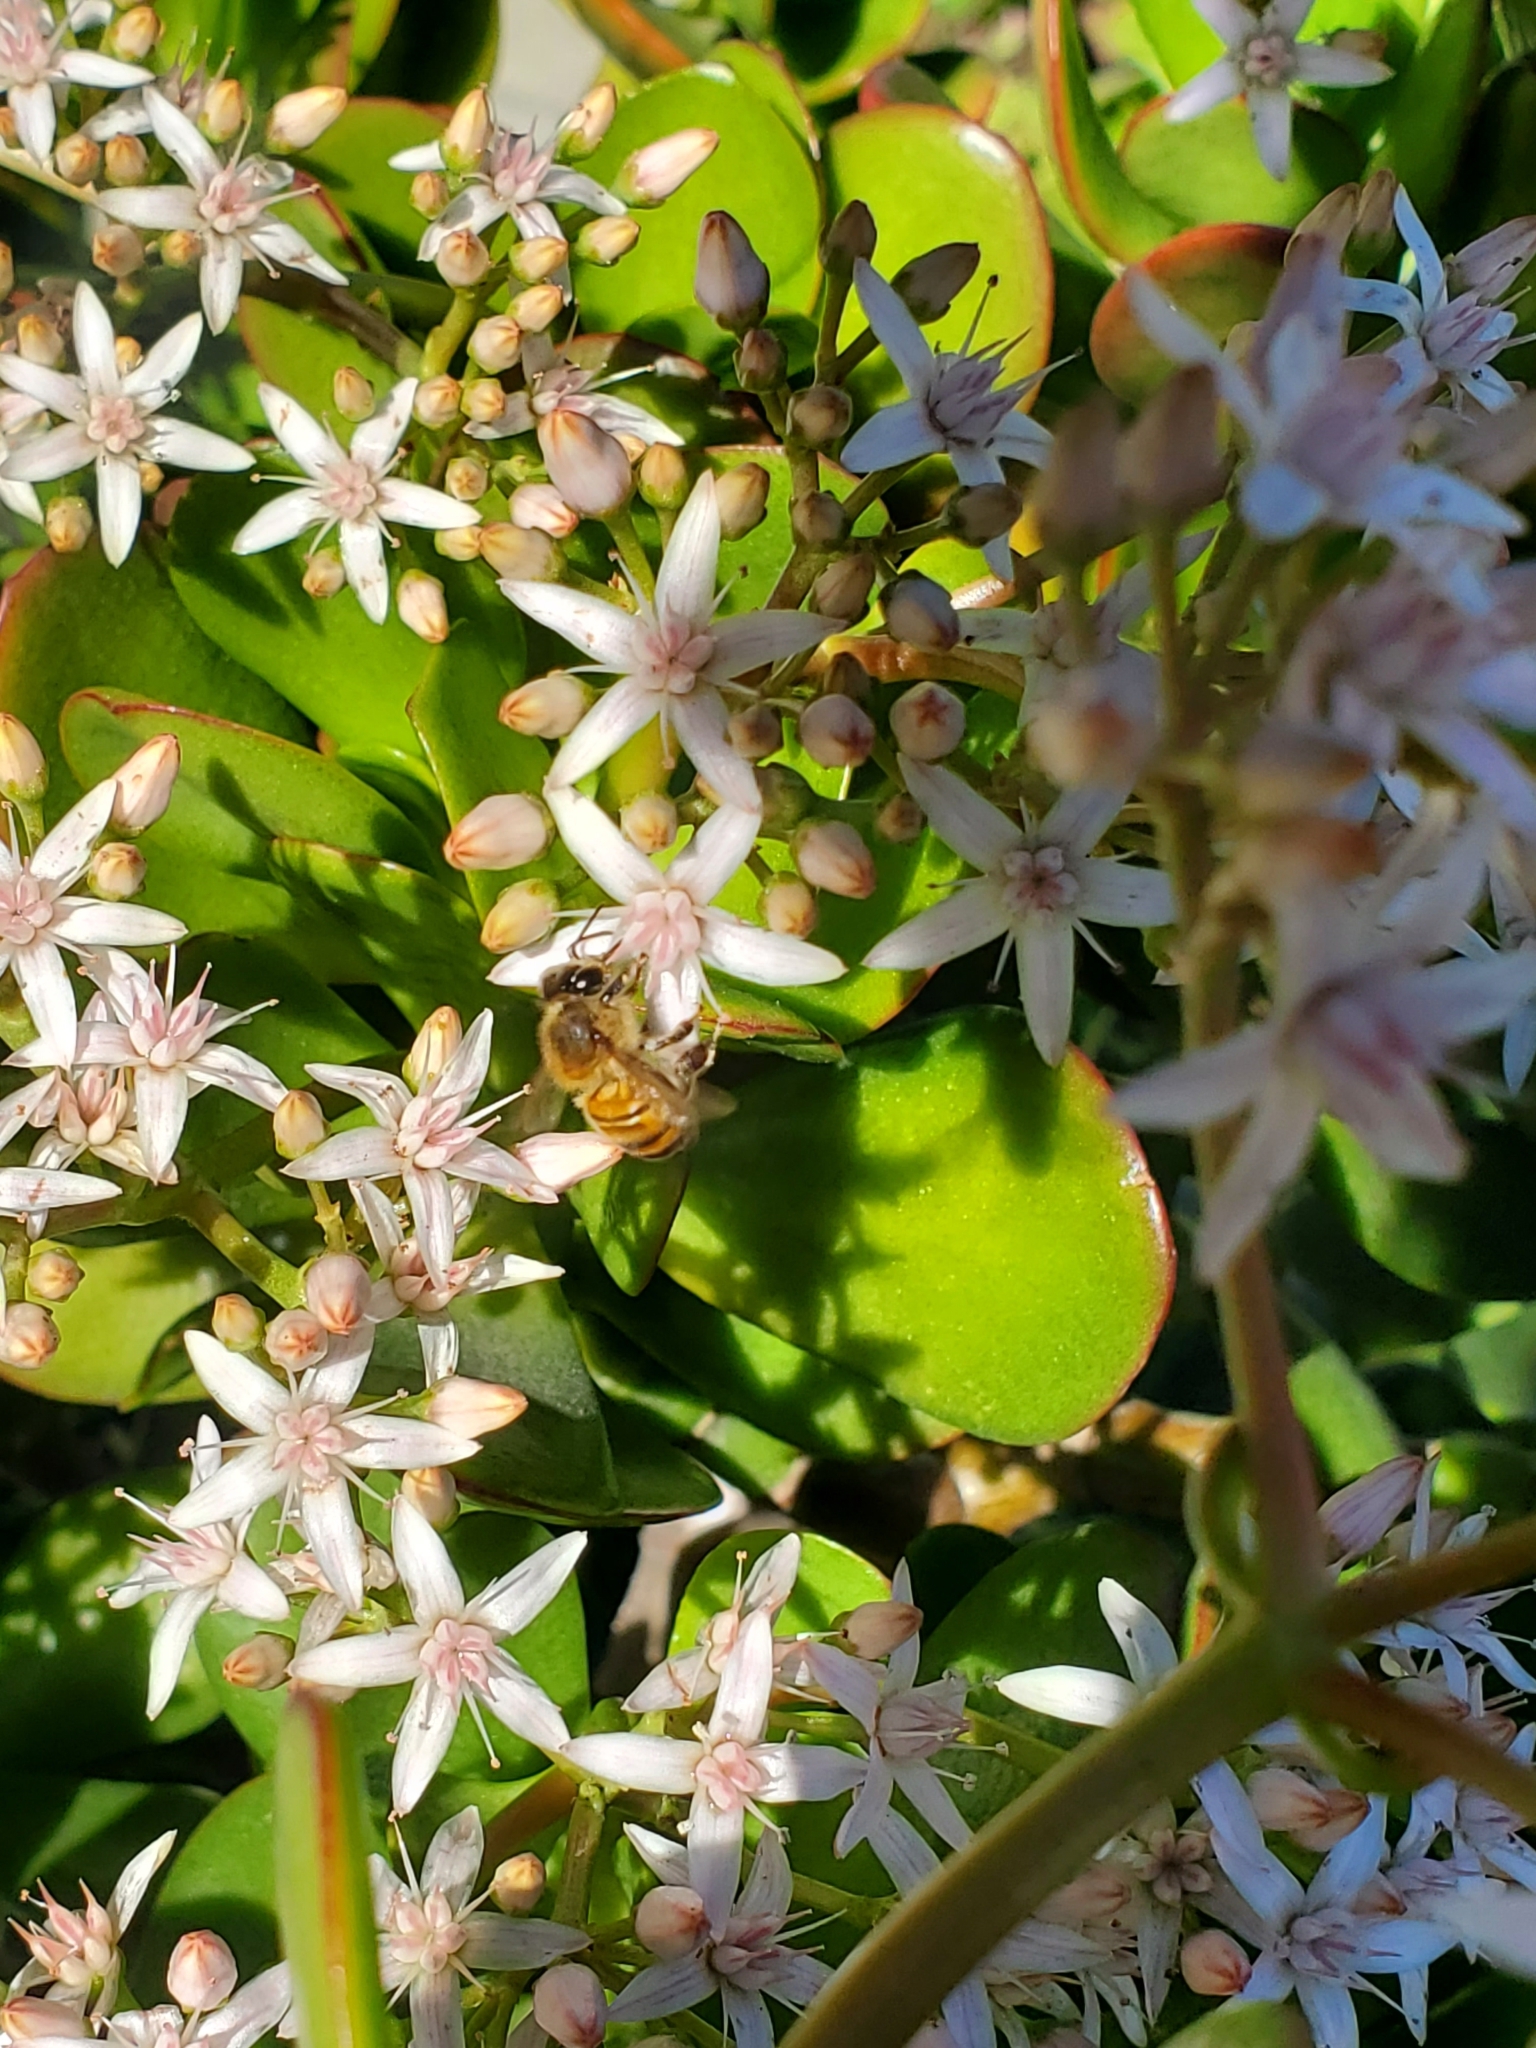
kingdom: Animalia
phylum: Arthropoda
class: Insecta
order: Hymenoptera
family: Apidae
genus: Apis
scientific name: Apis mellifera
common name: Honey bee
